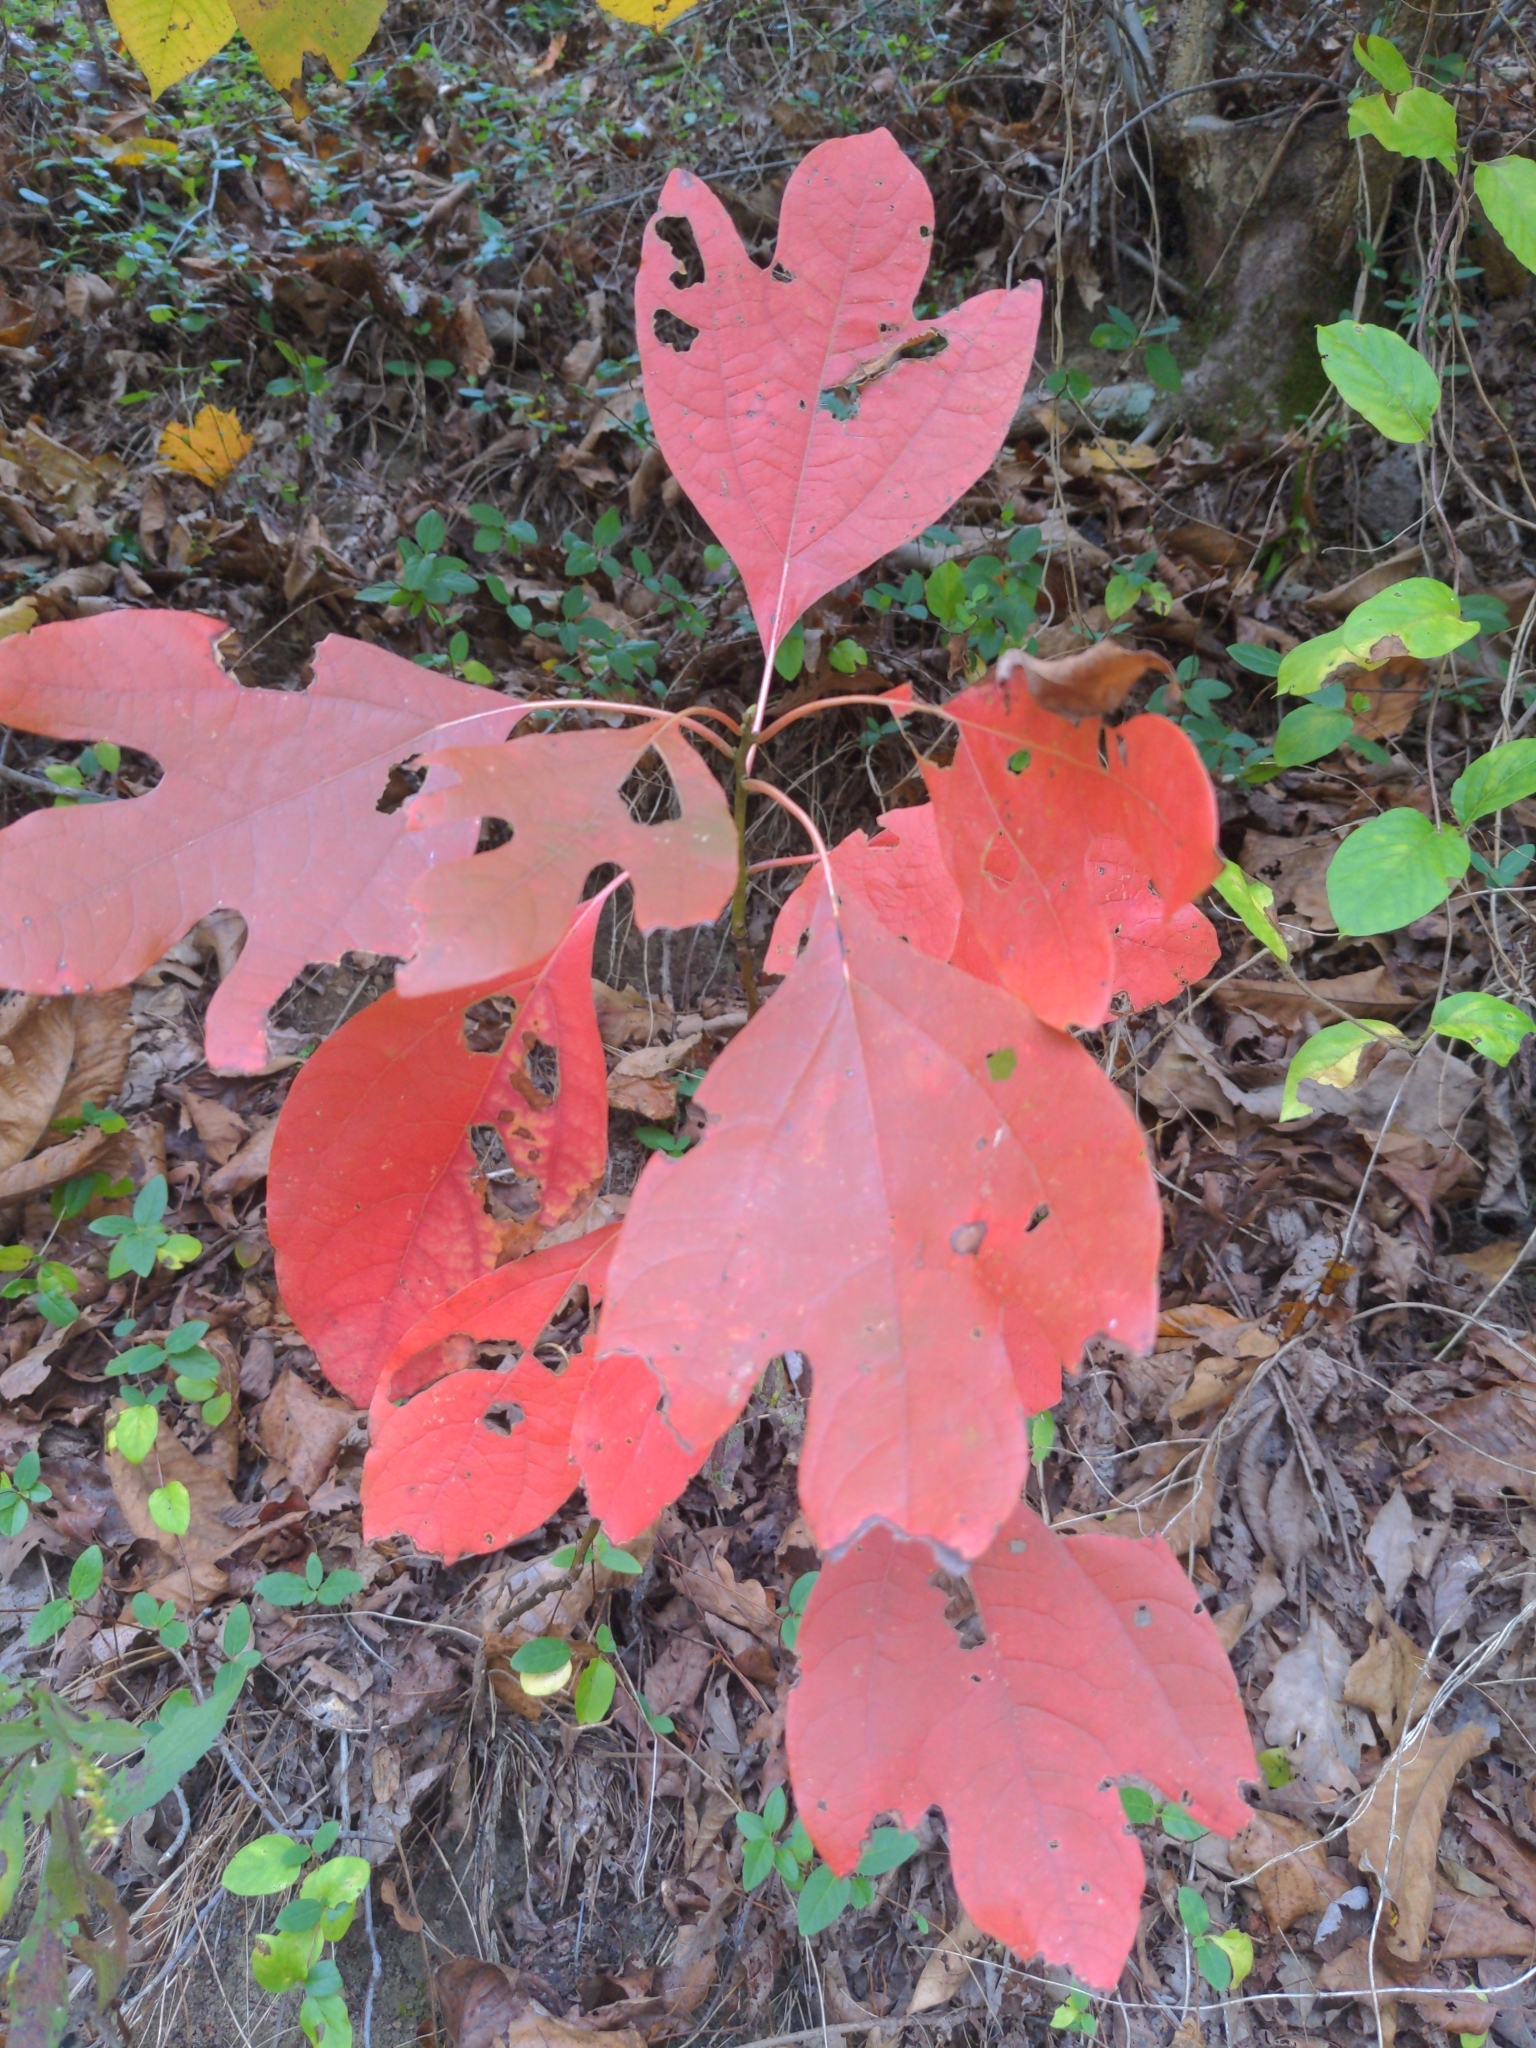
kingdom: Plantae
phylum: Tracheophyta
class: Magnoliopsida
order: Laurales
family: Lauraceae
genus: Sassafras
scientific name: Sassafras albidum
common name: Sassafras
